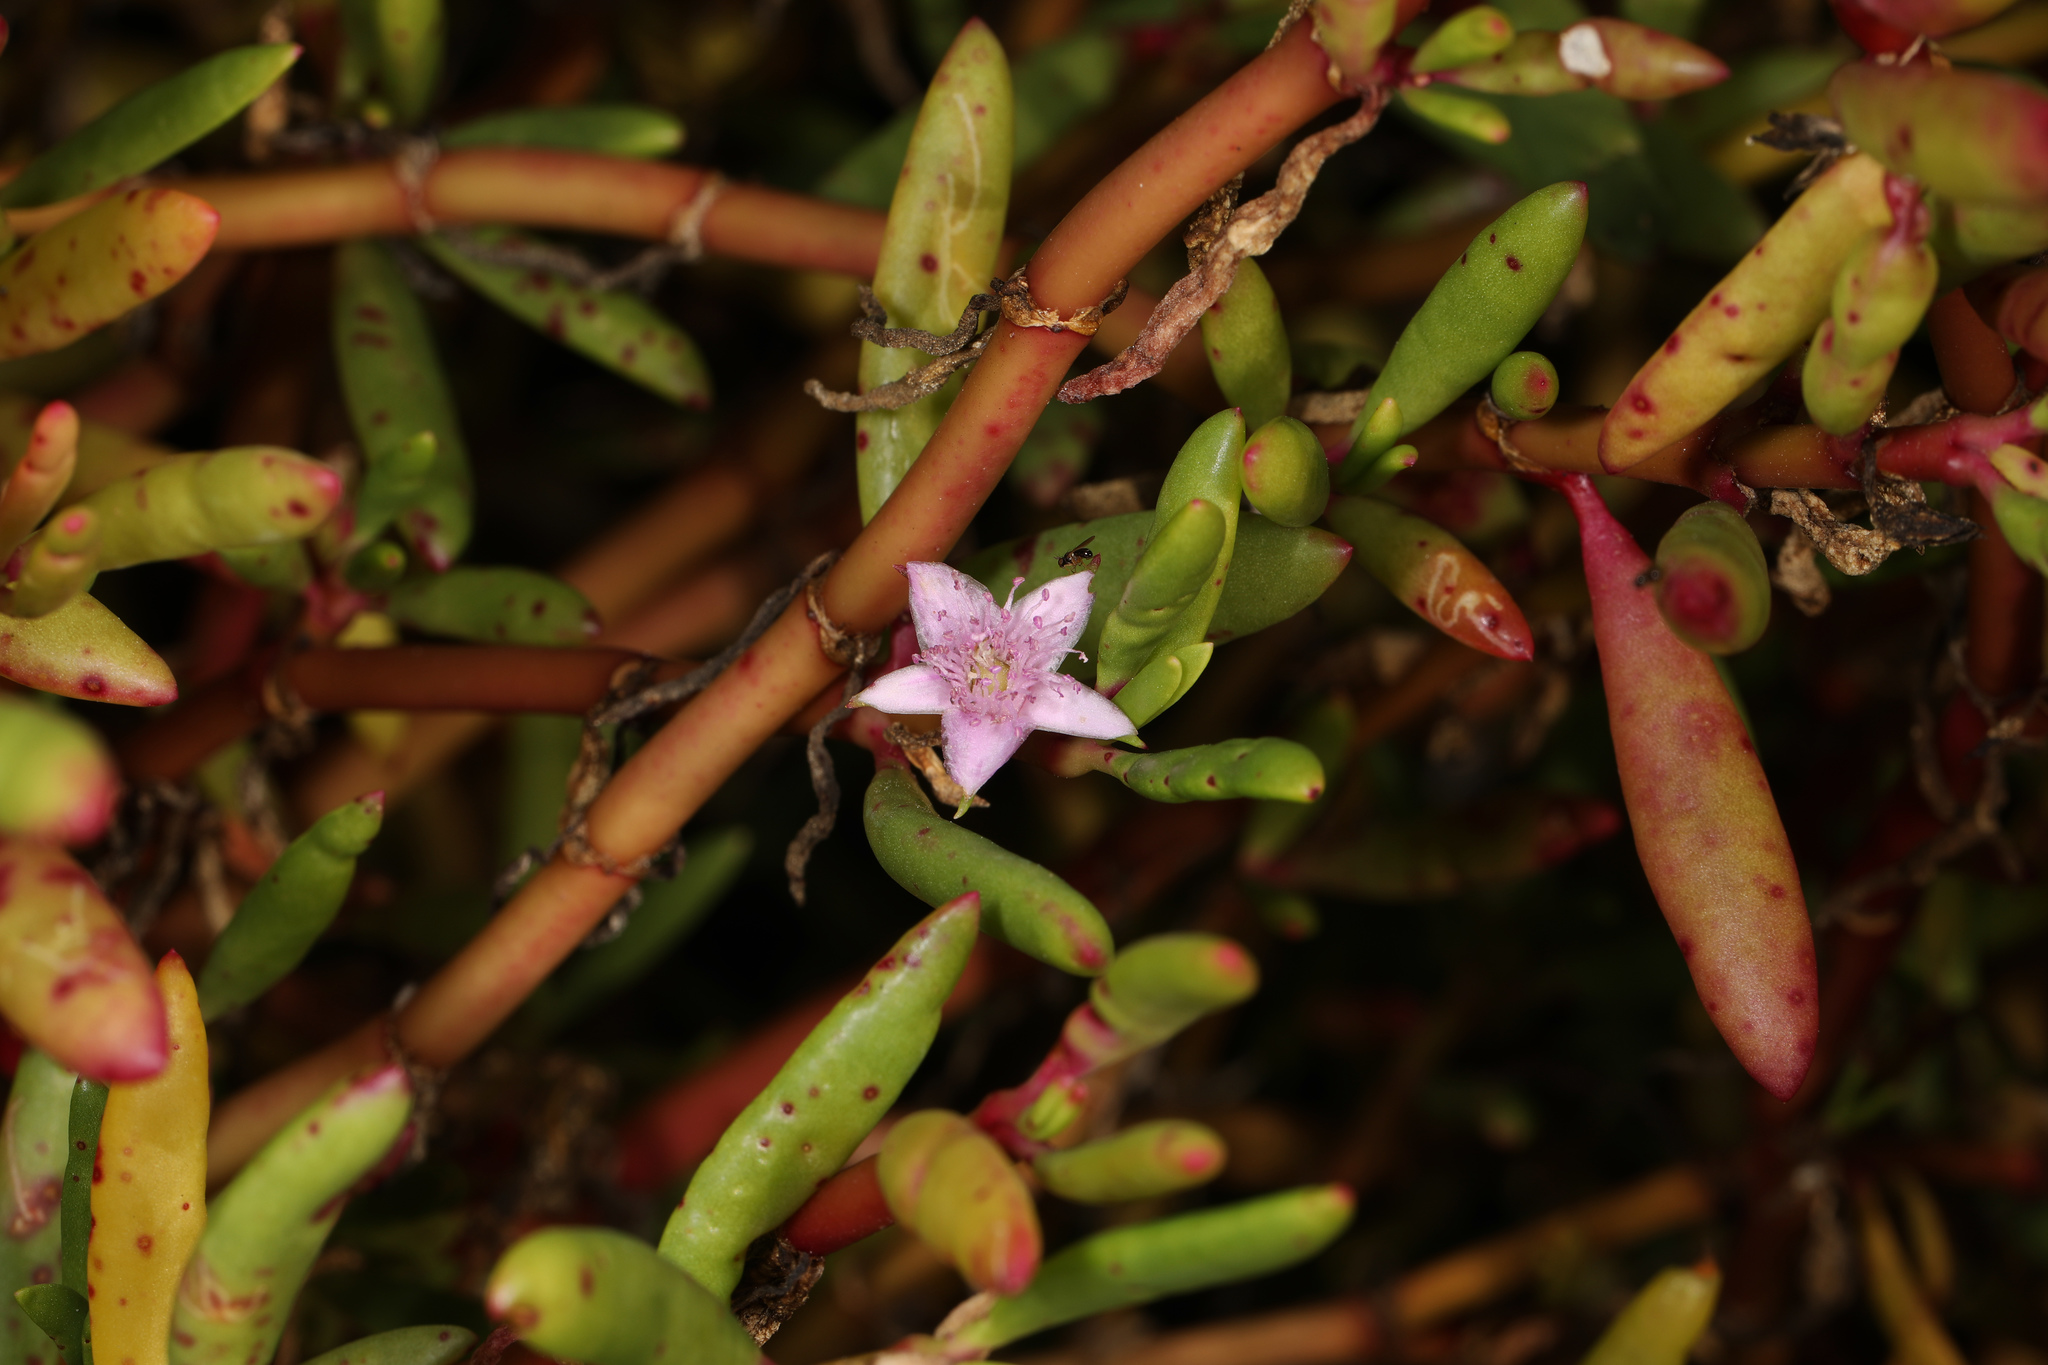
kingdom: Plantae
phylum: Tracheophyta
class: Magnoliopsida
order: Caryophyllales
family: Aizoaceae
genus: Sesuvium
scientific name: Sesuvium portulacastrum
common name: Sea-purslane
